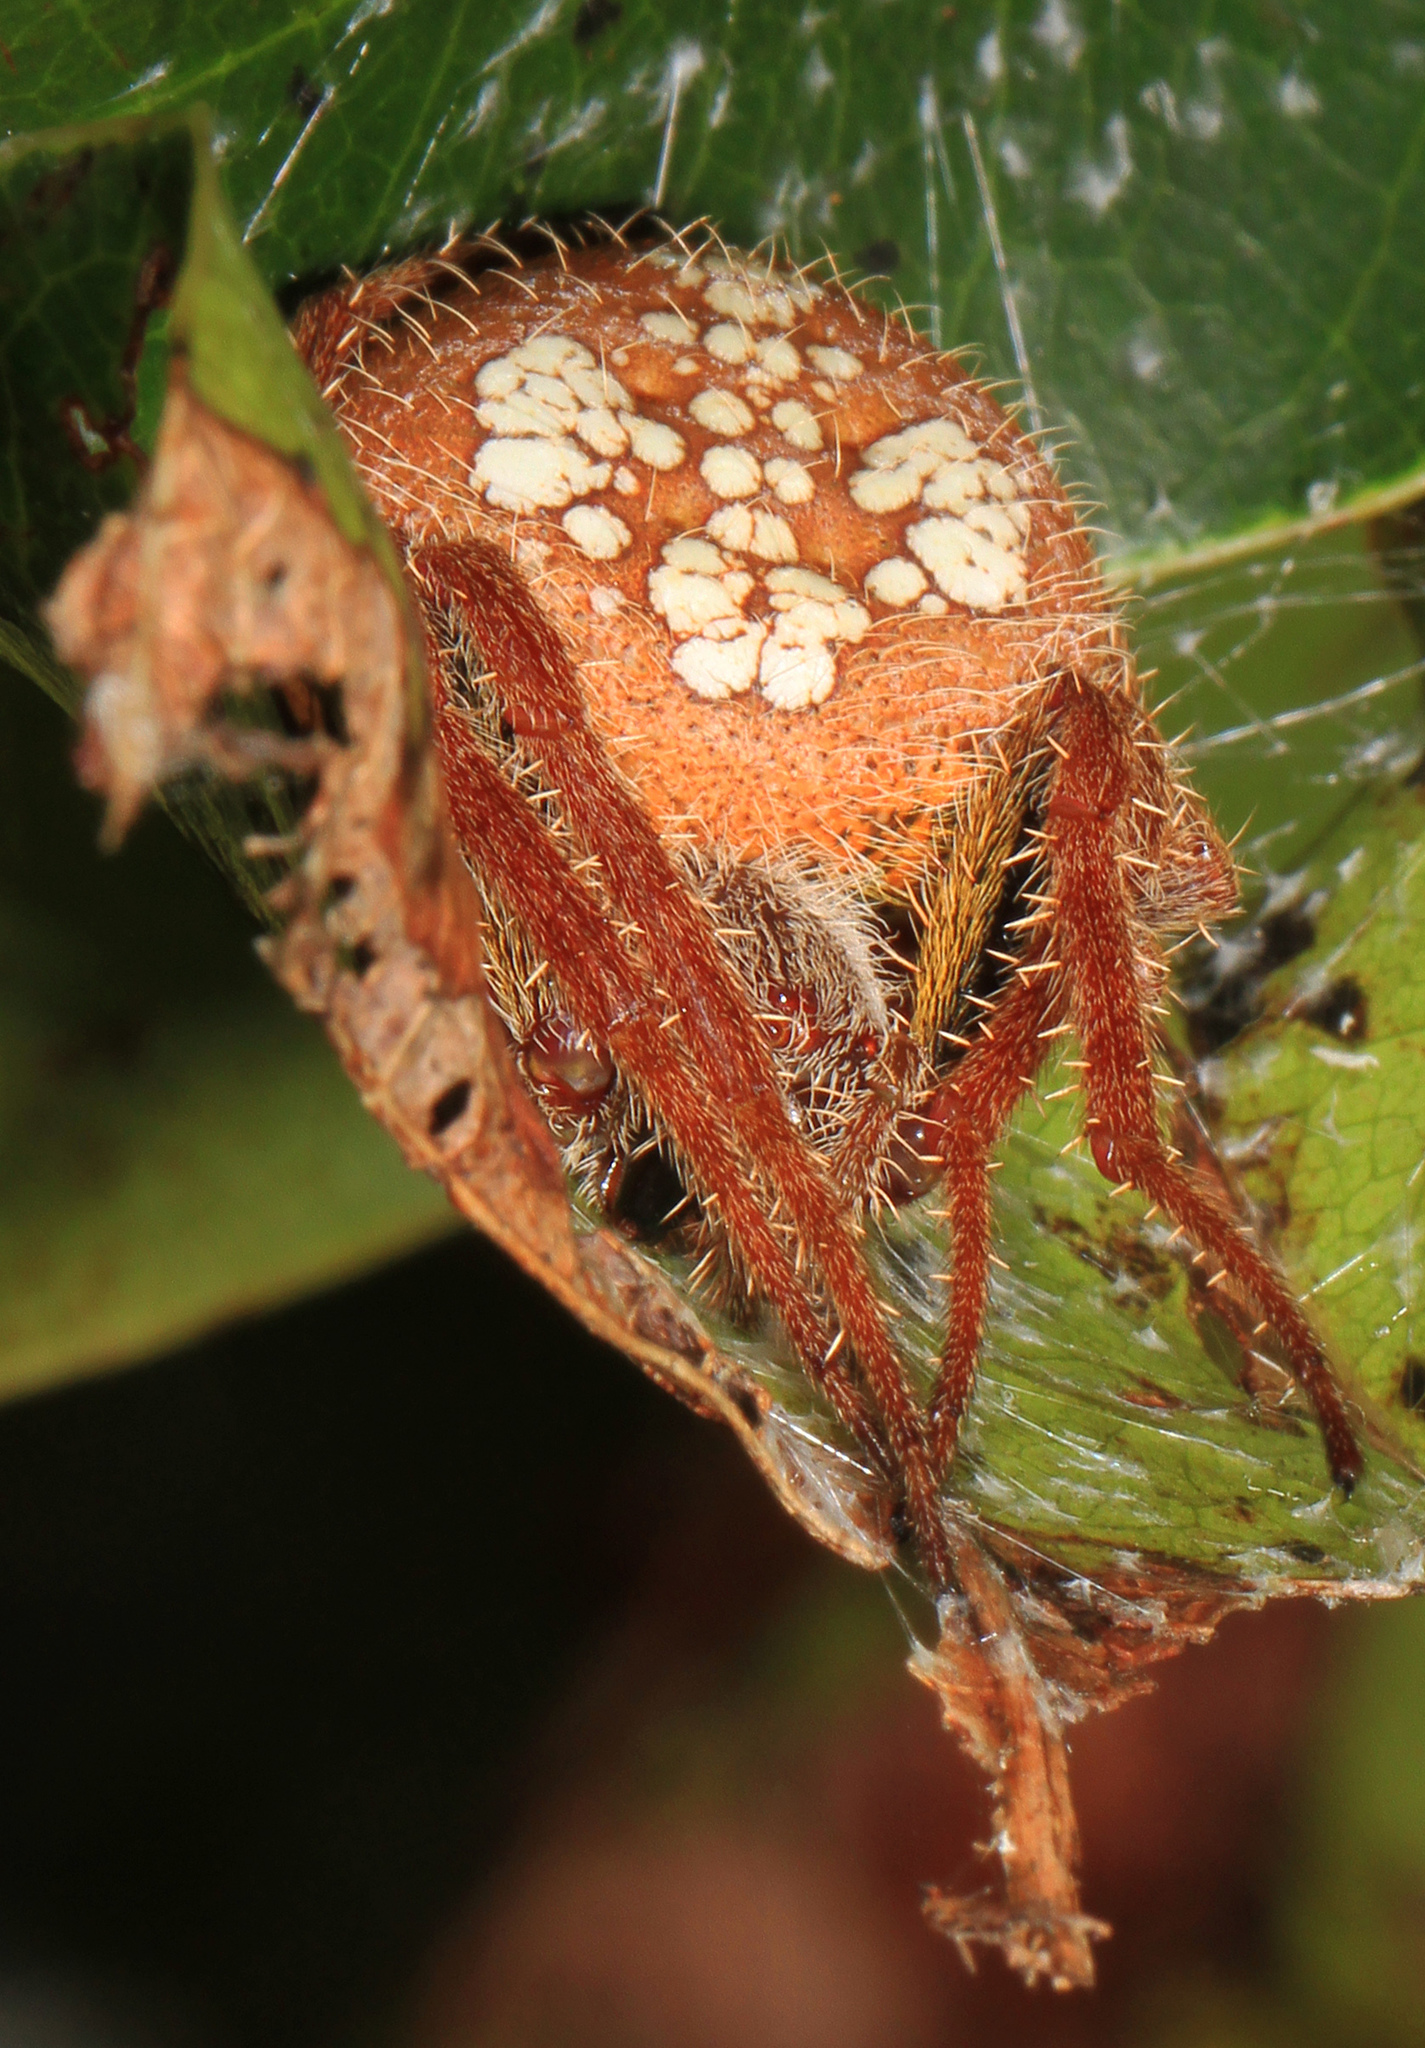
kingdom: Animalia
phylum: Arthropoda
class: Arachnida
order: Araneae
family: Araneidae
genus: Eriophora
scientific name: Eriophora ravilla
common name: Orb weavers
